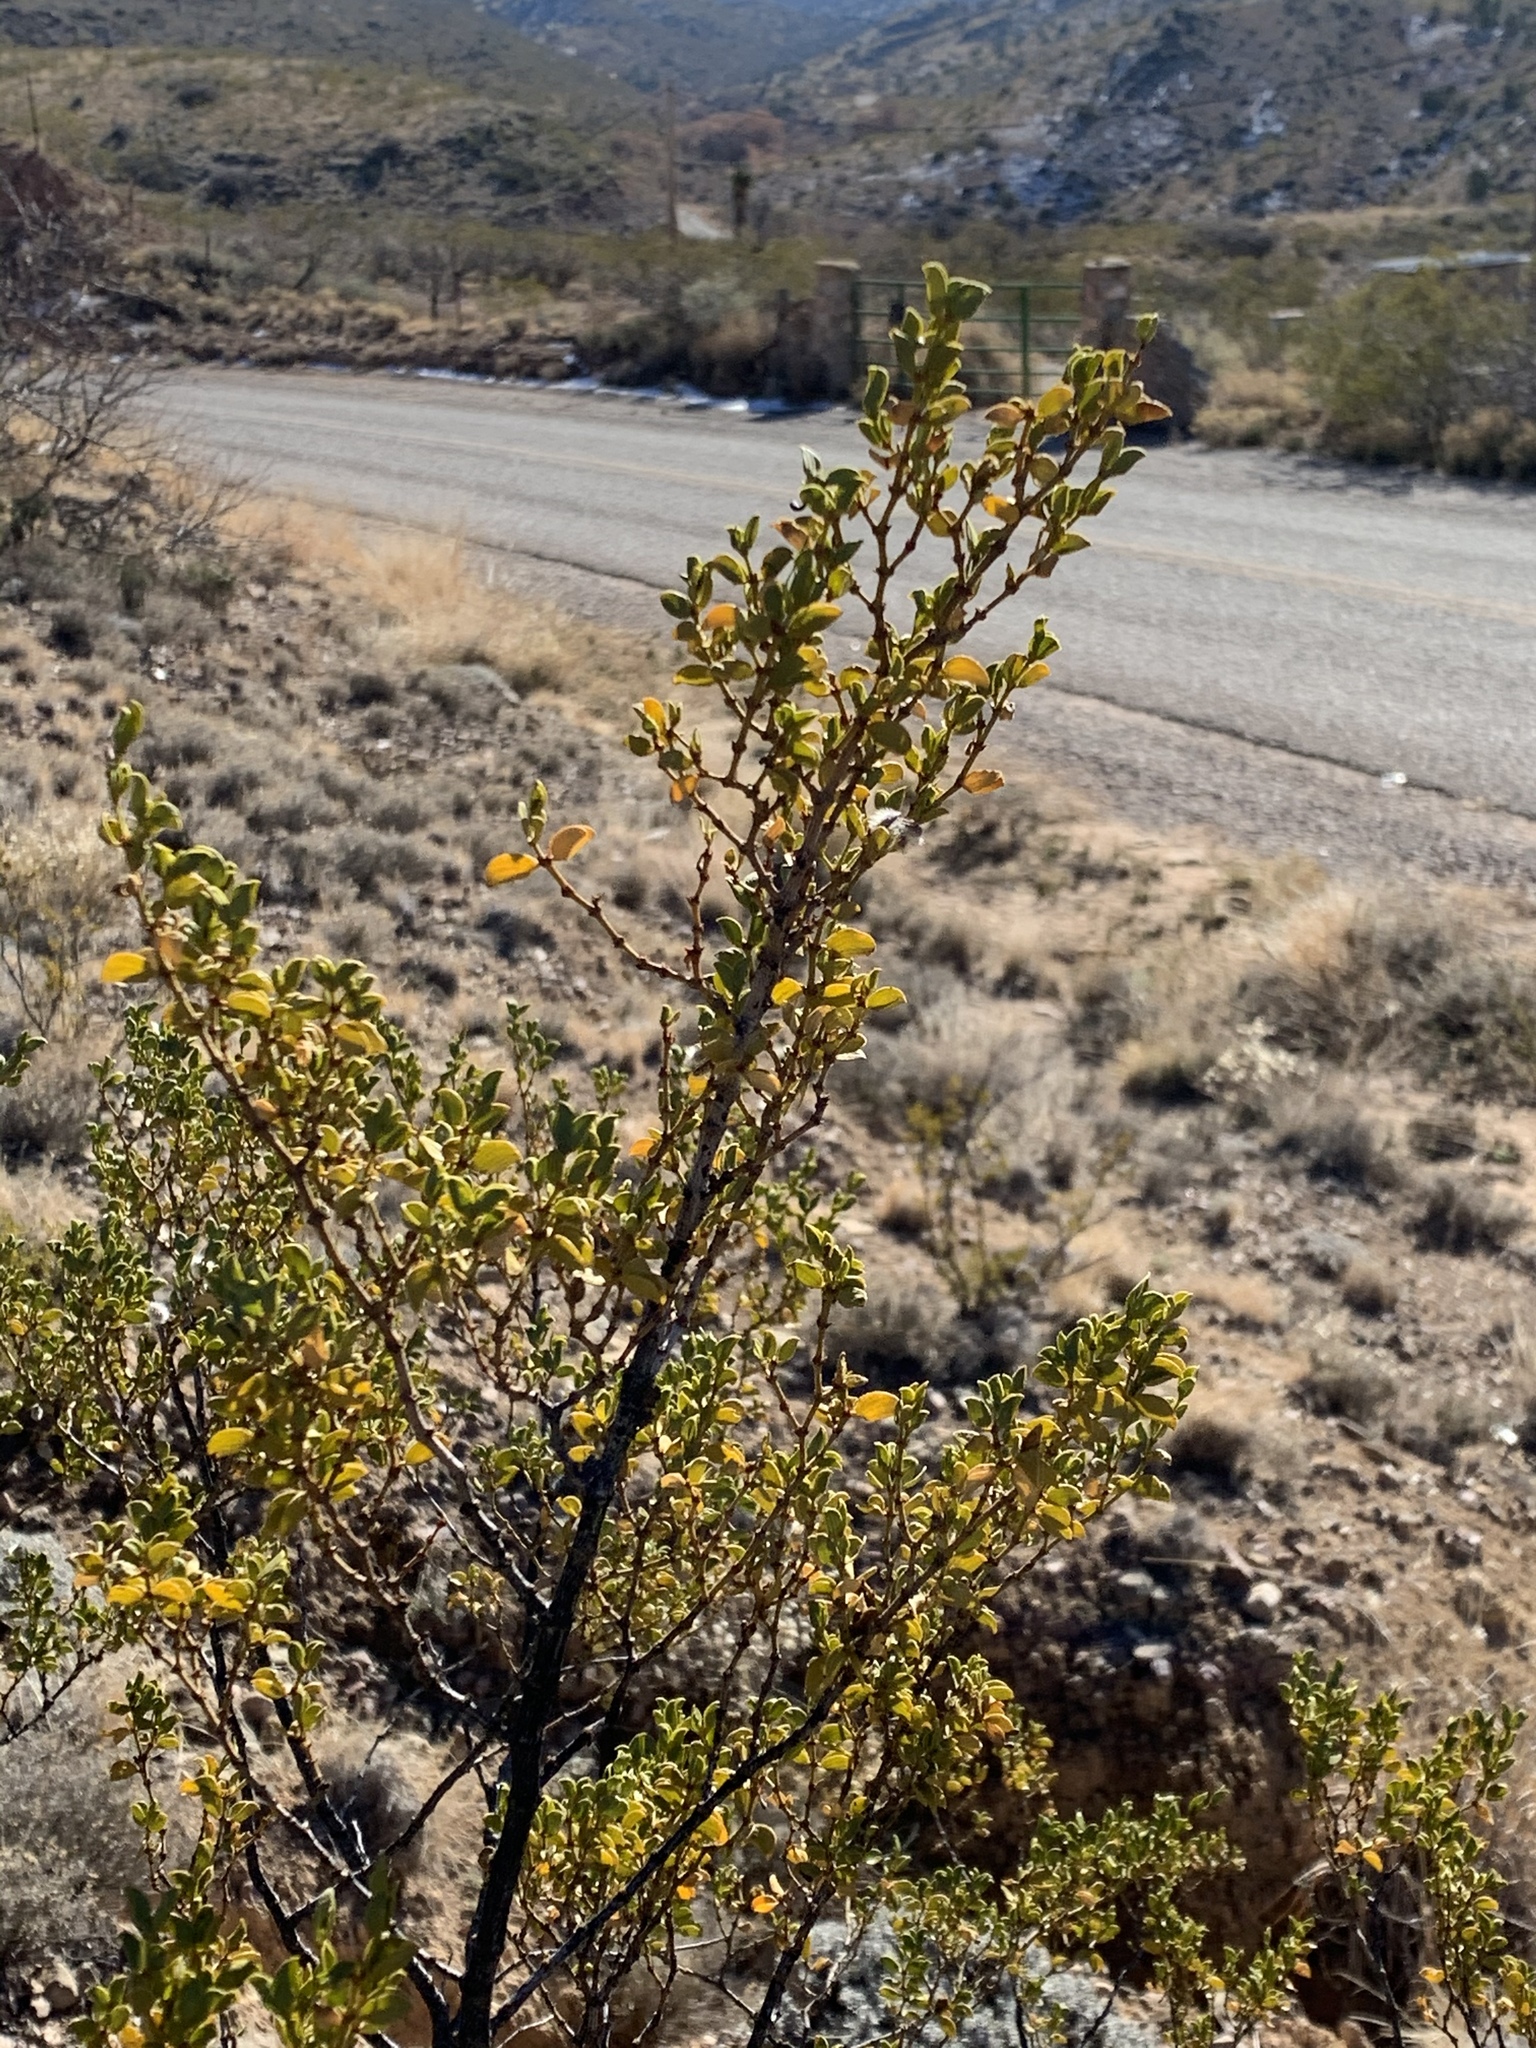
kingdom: Plantae
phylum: Tracheophyta
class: Magnoliopsida
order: Zygophyllales
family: Zygophyllaceae
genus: Larrea
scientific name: Larrea tridentata
